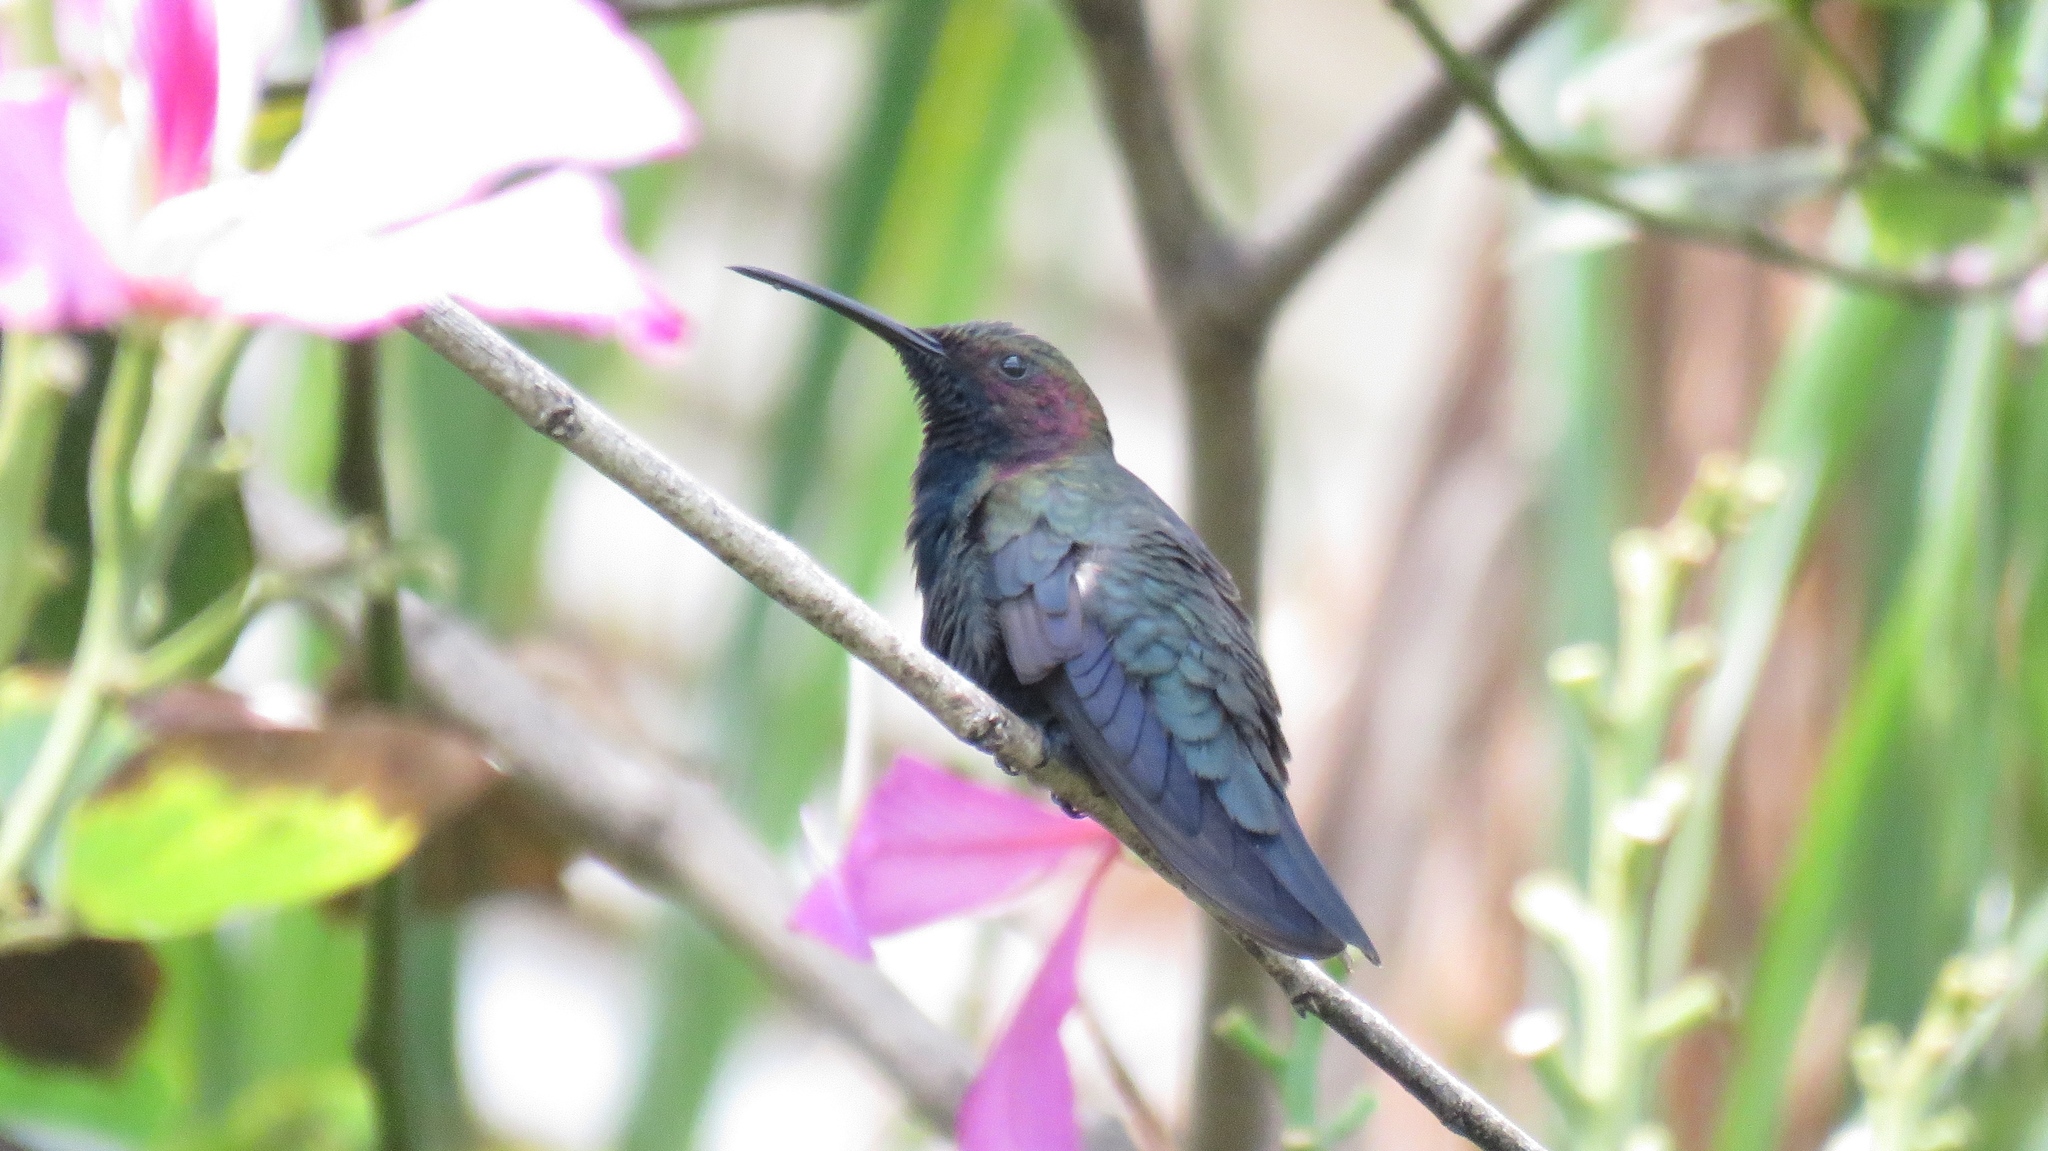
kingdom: Animalia
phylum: Chordata
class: Aves
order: Apodiformes
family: Trochilidae
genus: Anthracothorax
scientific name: Anthracothorax mango
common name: Jamaican mango
